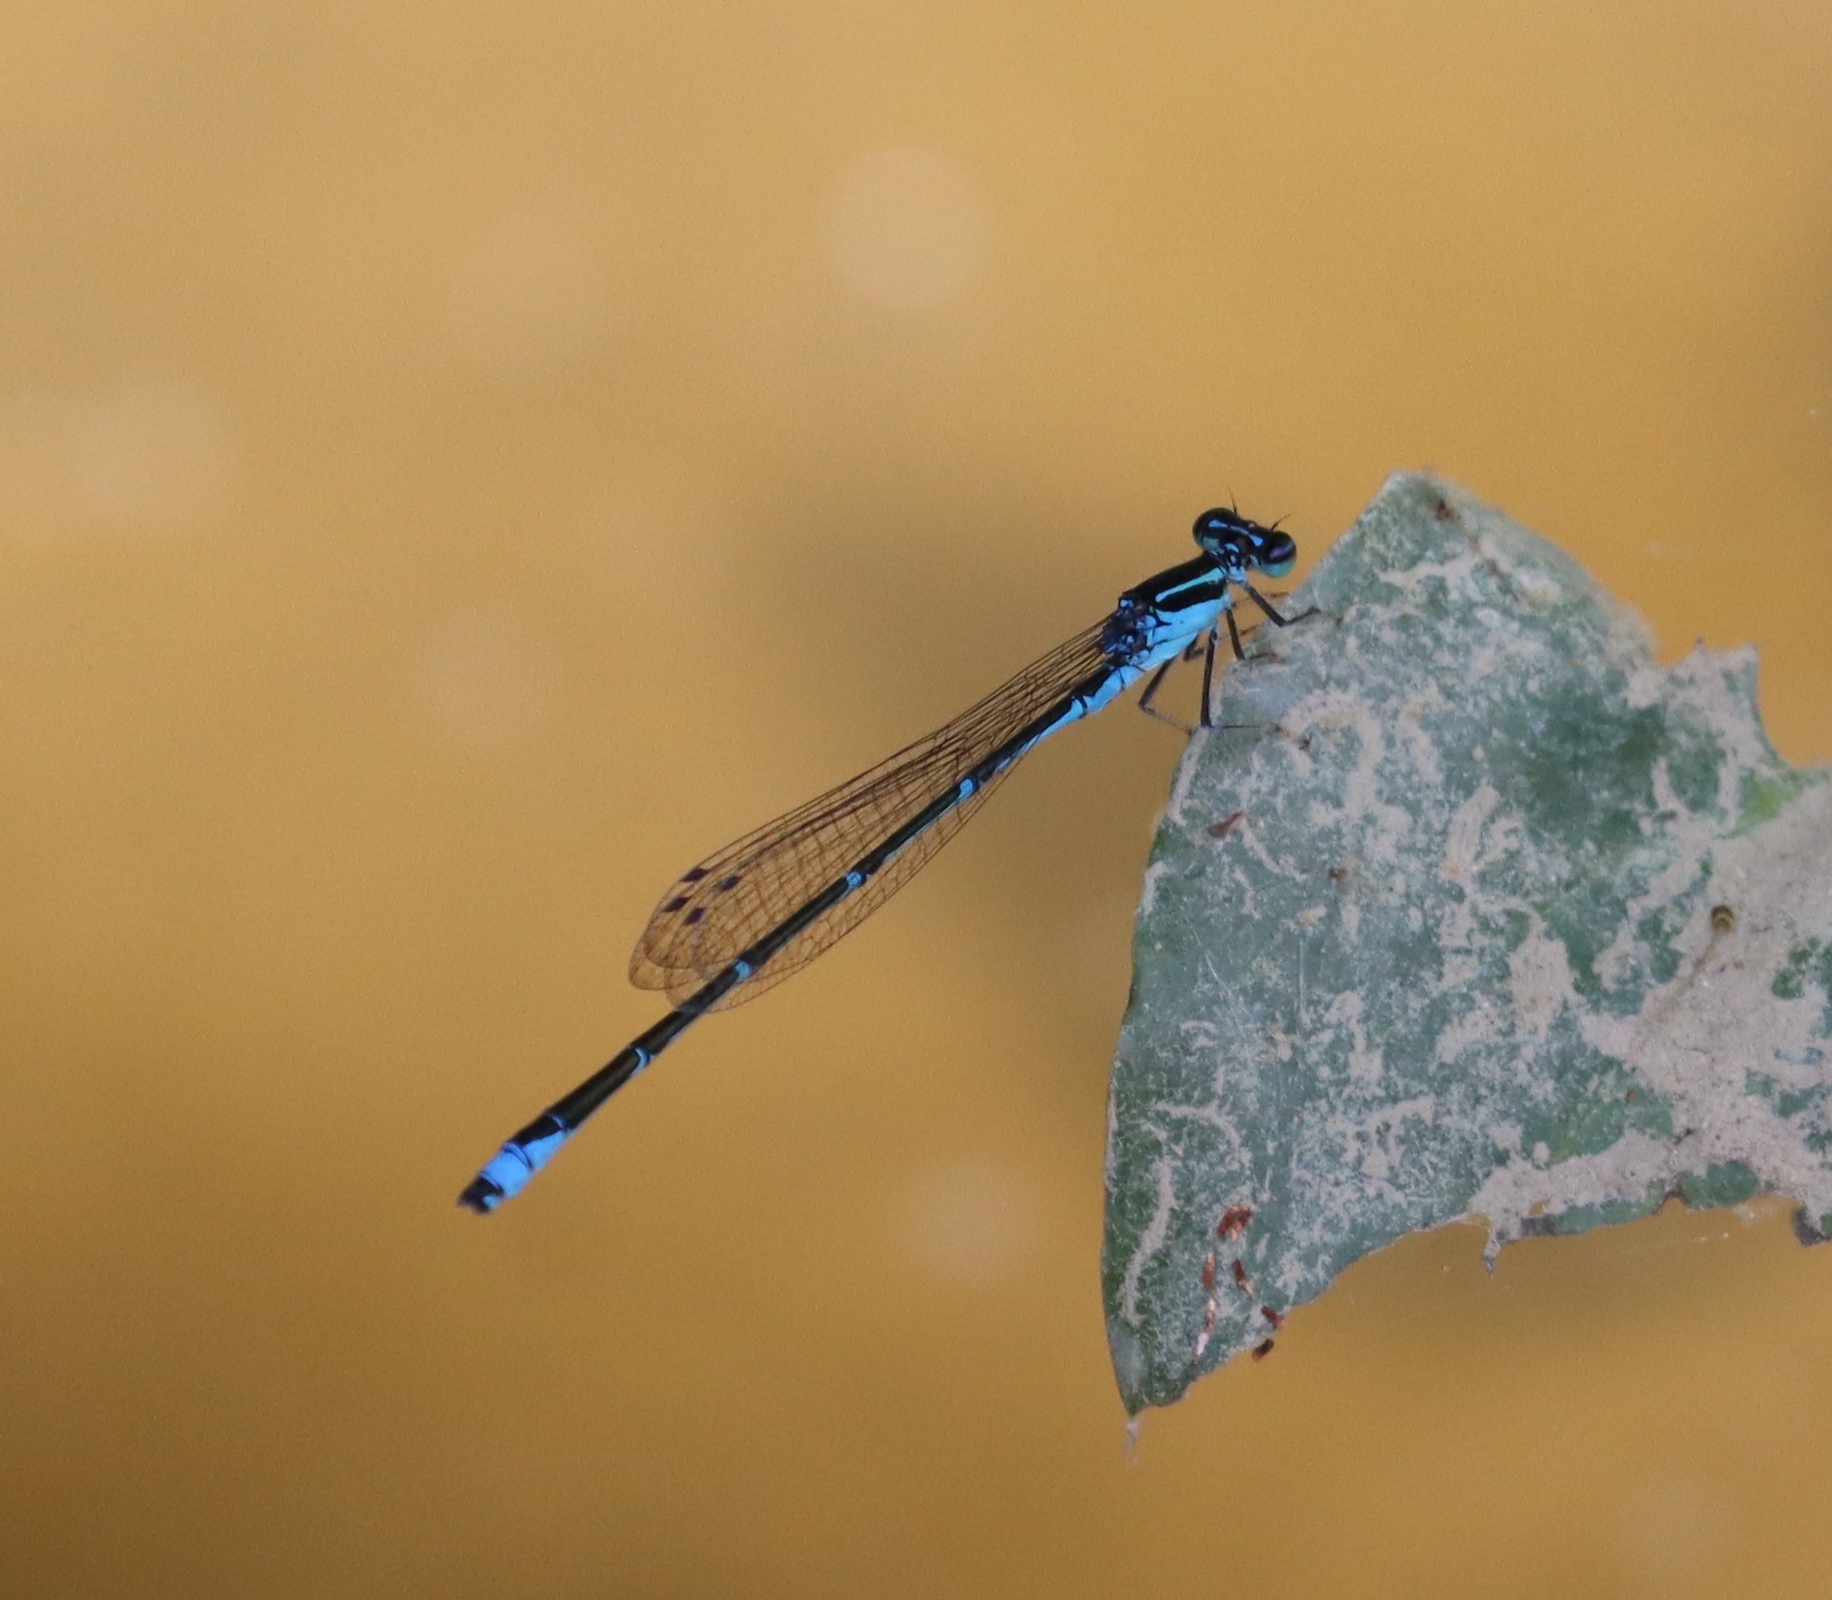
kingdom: Animalia
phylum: Arthropoda
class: Insecta
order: Odonata
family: Coenagrionidae
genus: Enallagma
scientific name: Enallagma exsulans
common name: Stream bluet
